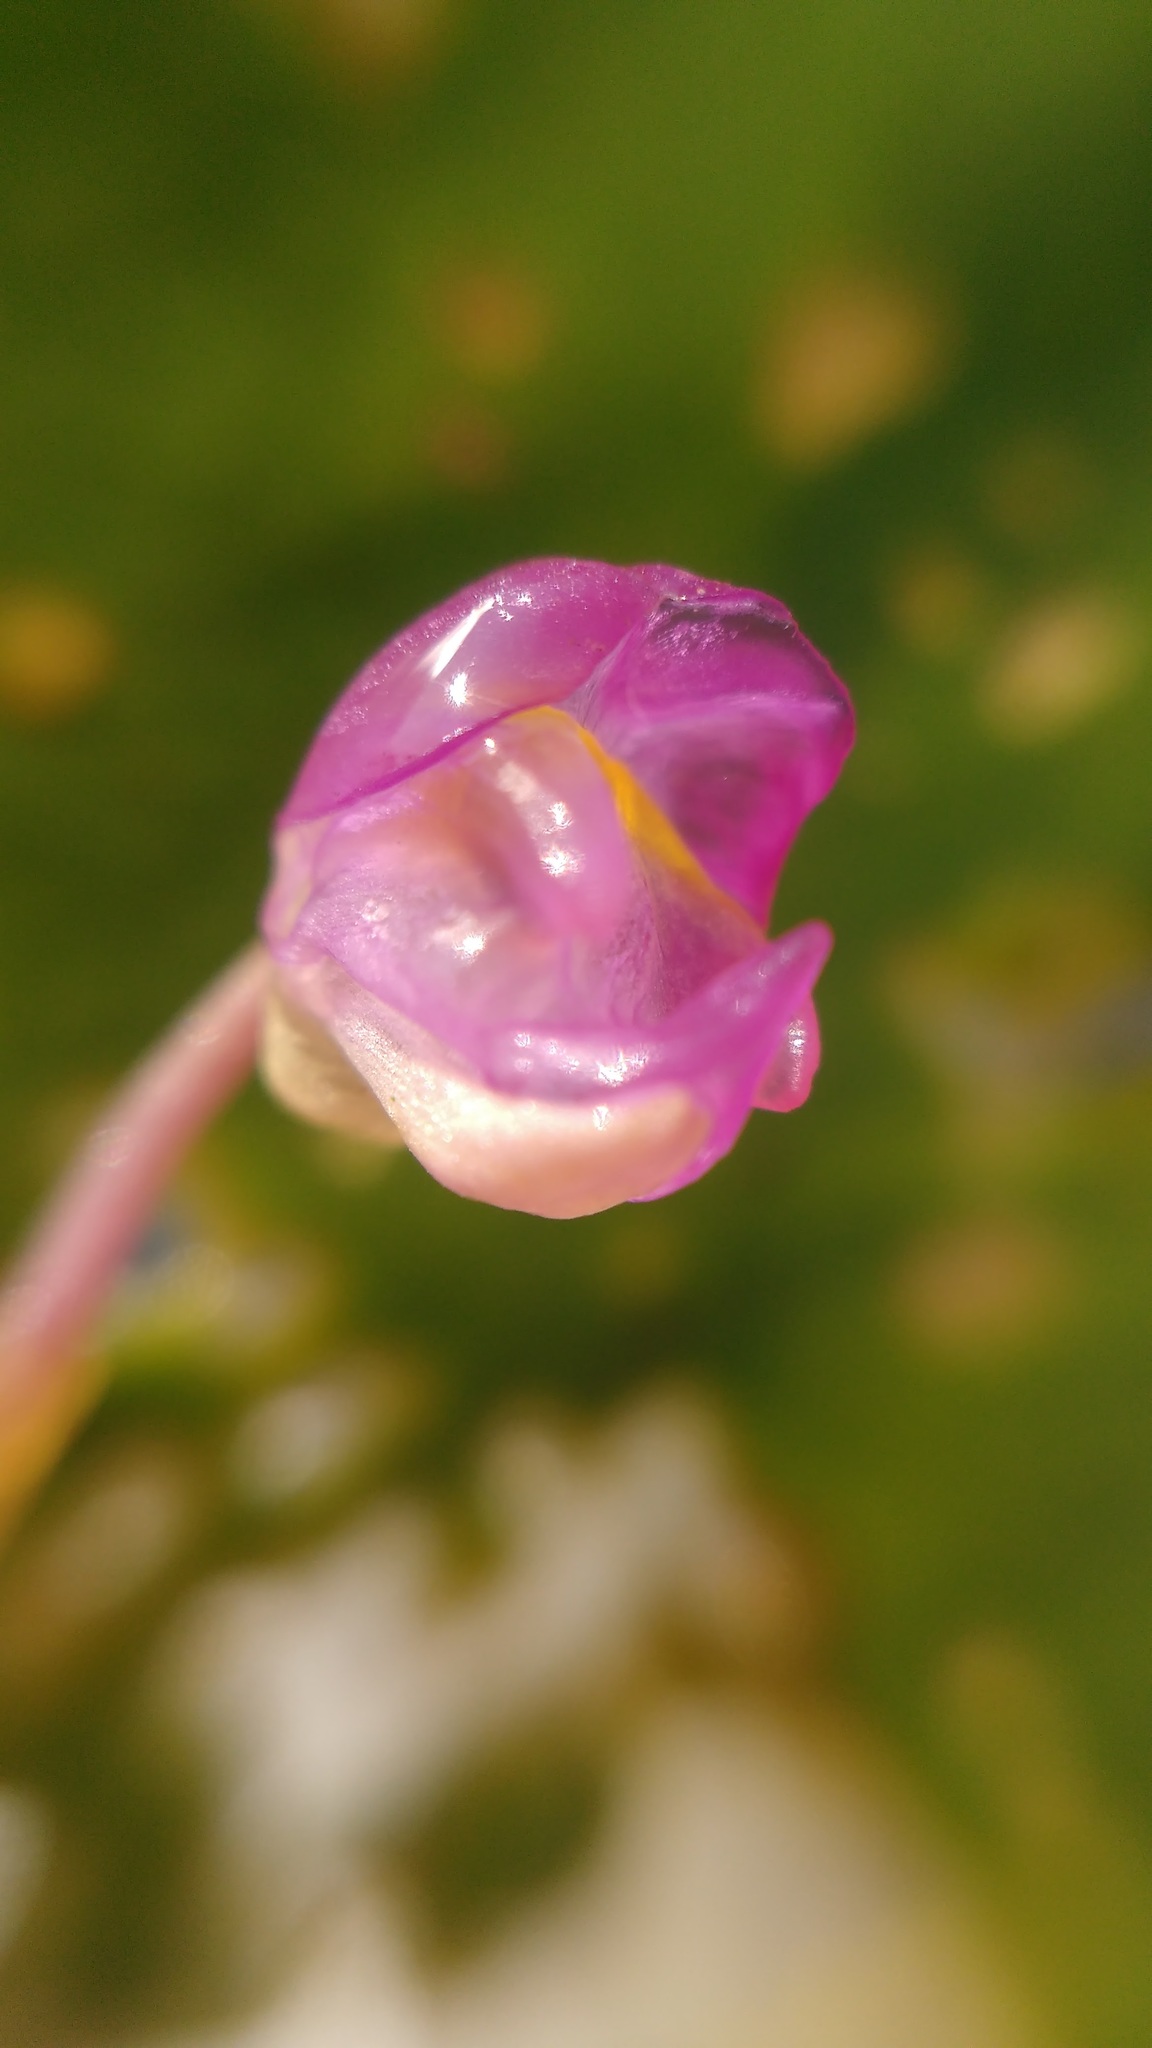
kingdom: Plantae
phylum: Tracheophyta
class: Magnoliopsida
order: Lamiales
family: Lentibulariaceae
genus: Utricularia
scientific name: Utricularia purpurea
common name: Eastern purple bladderwort
